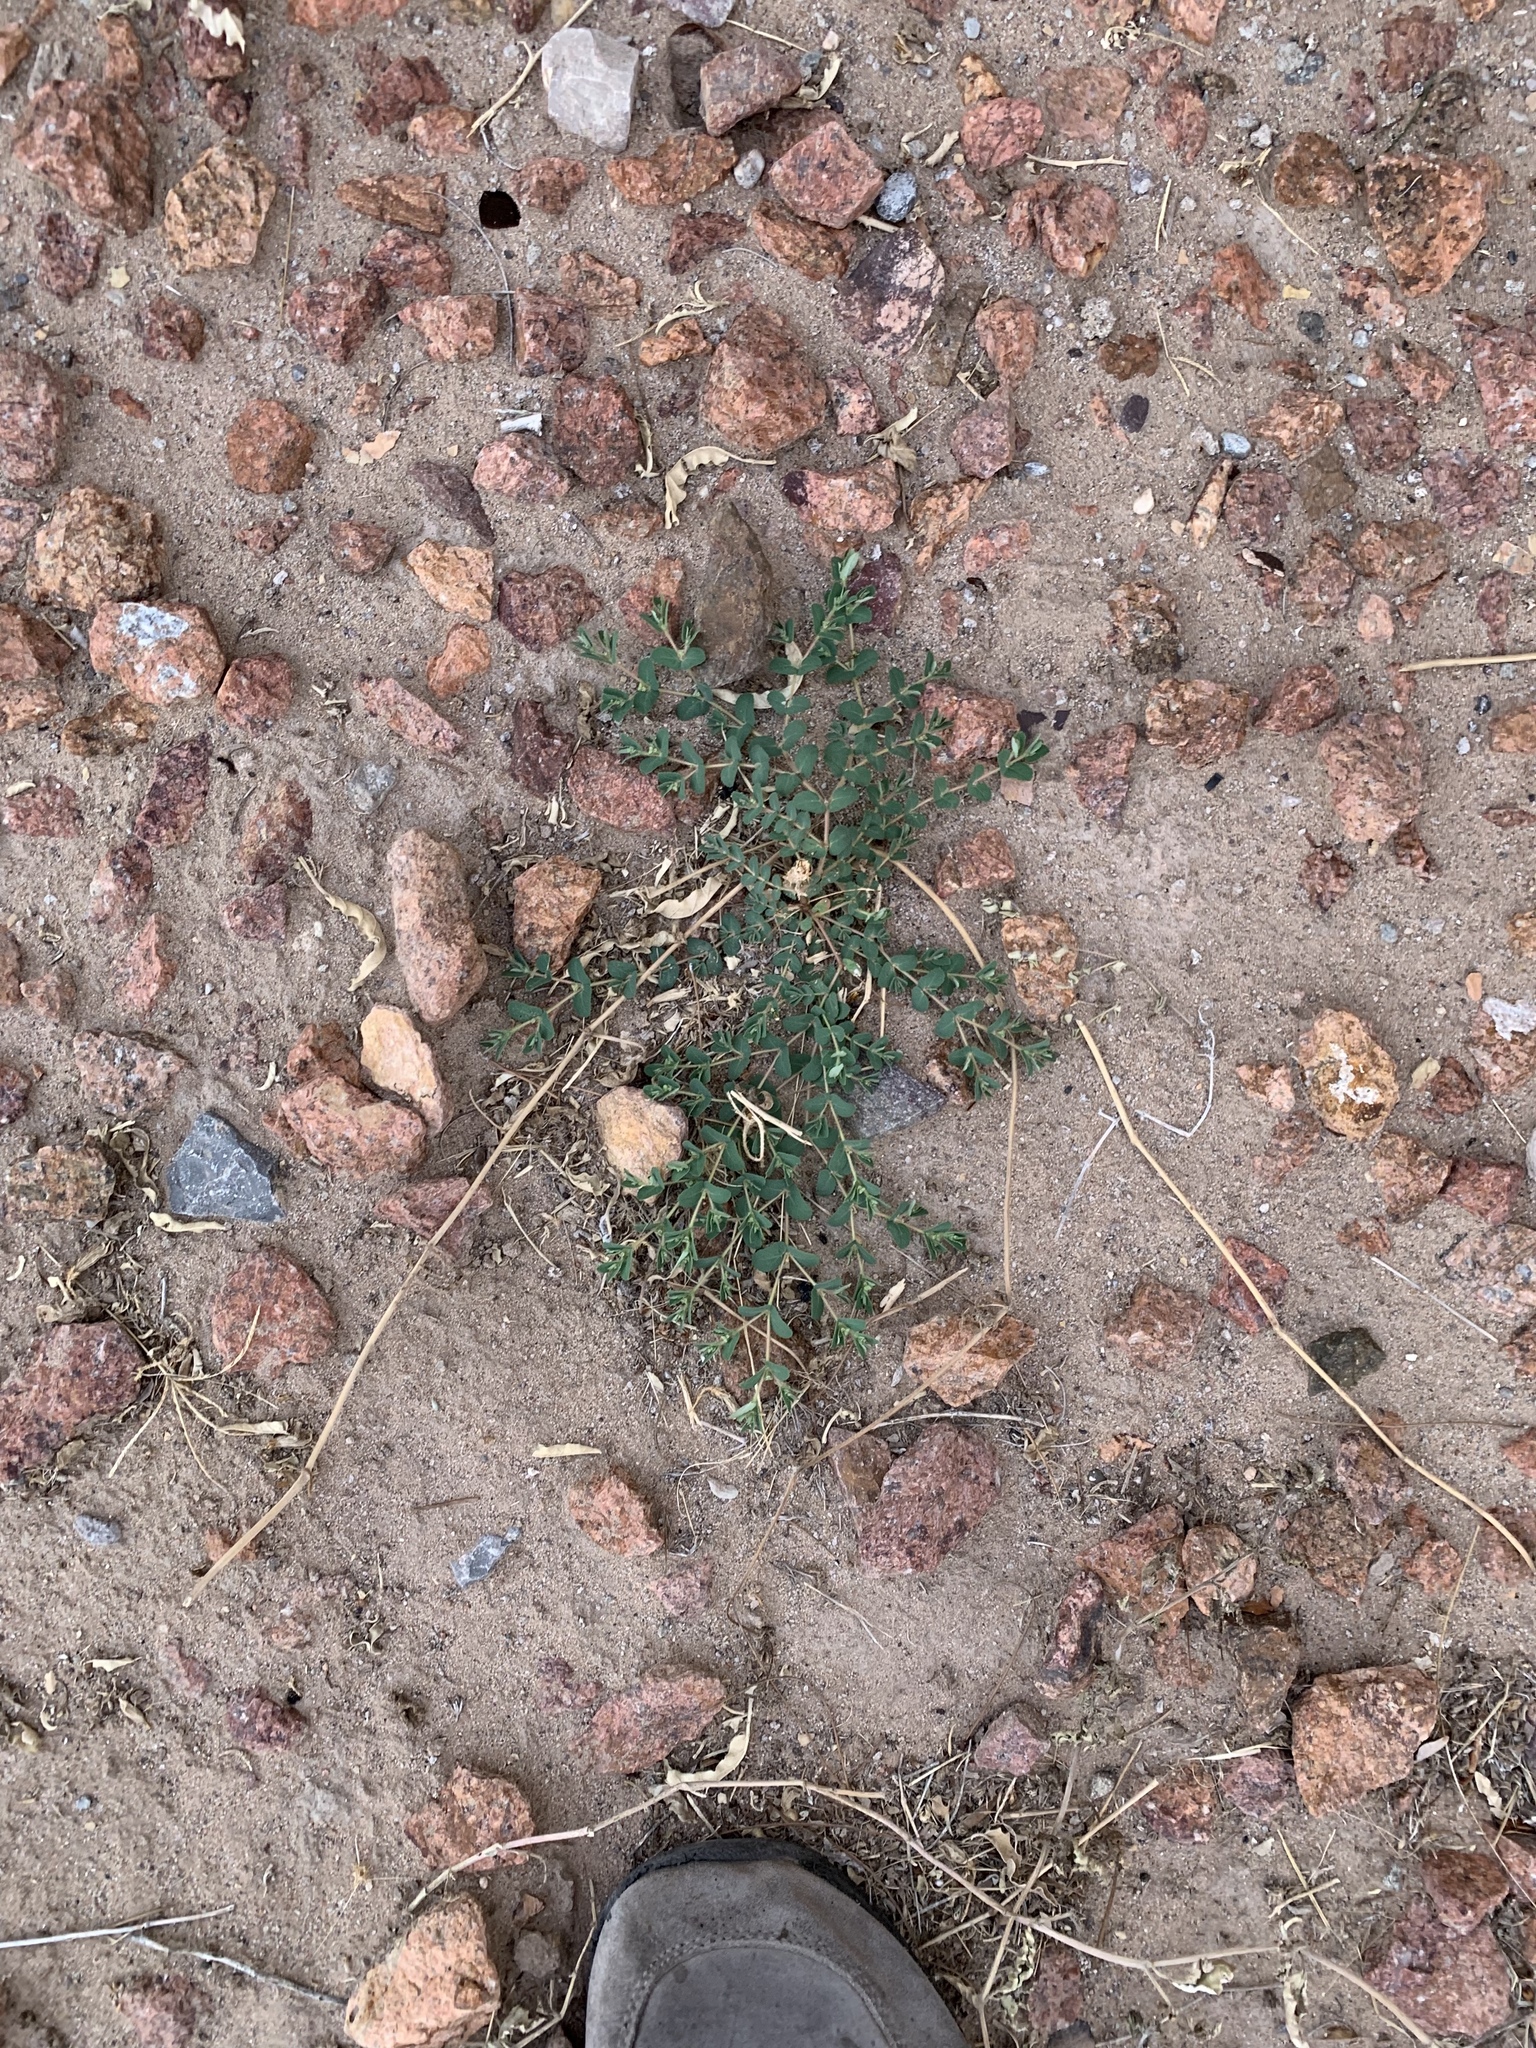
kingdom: Plantae
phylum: Tracheophyta
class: Magnoliopsida
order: Malpighiales
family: Euphorbiaceae
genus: Euphorbia
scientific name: Euphorbia serrula
